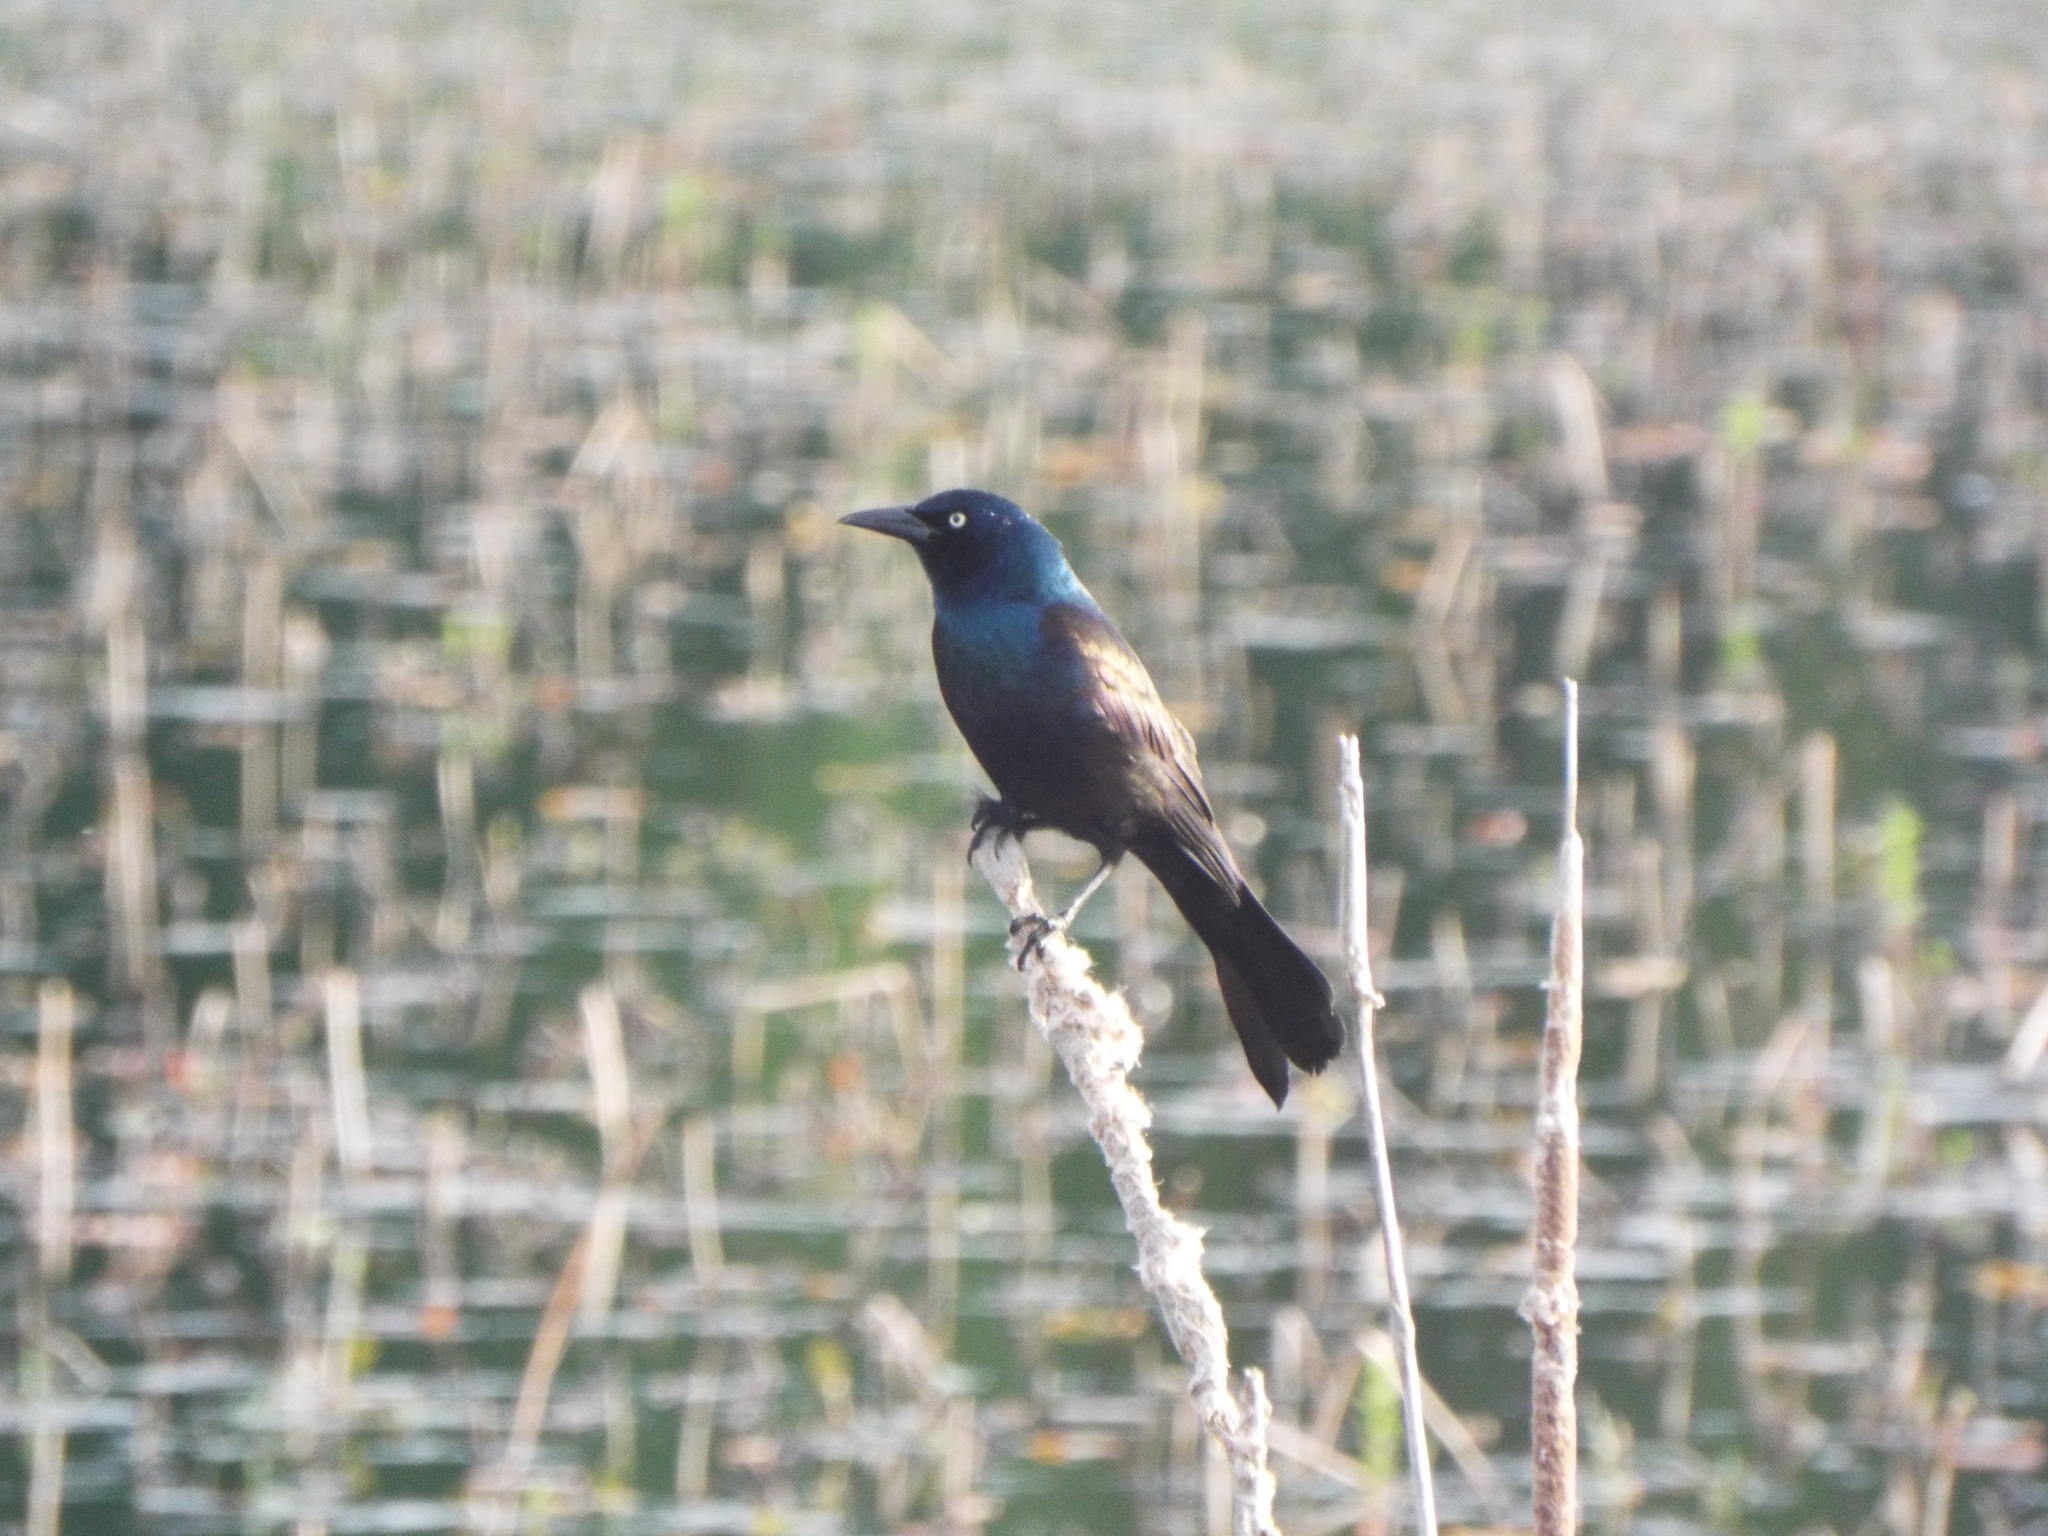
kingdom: Animalia
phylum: Chordata
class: Aves
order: Passeriformes
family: Icteridae
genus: Quiscalus
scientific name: Quiscalus quiscula
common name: Common grackle
